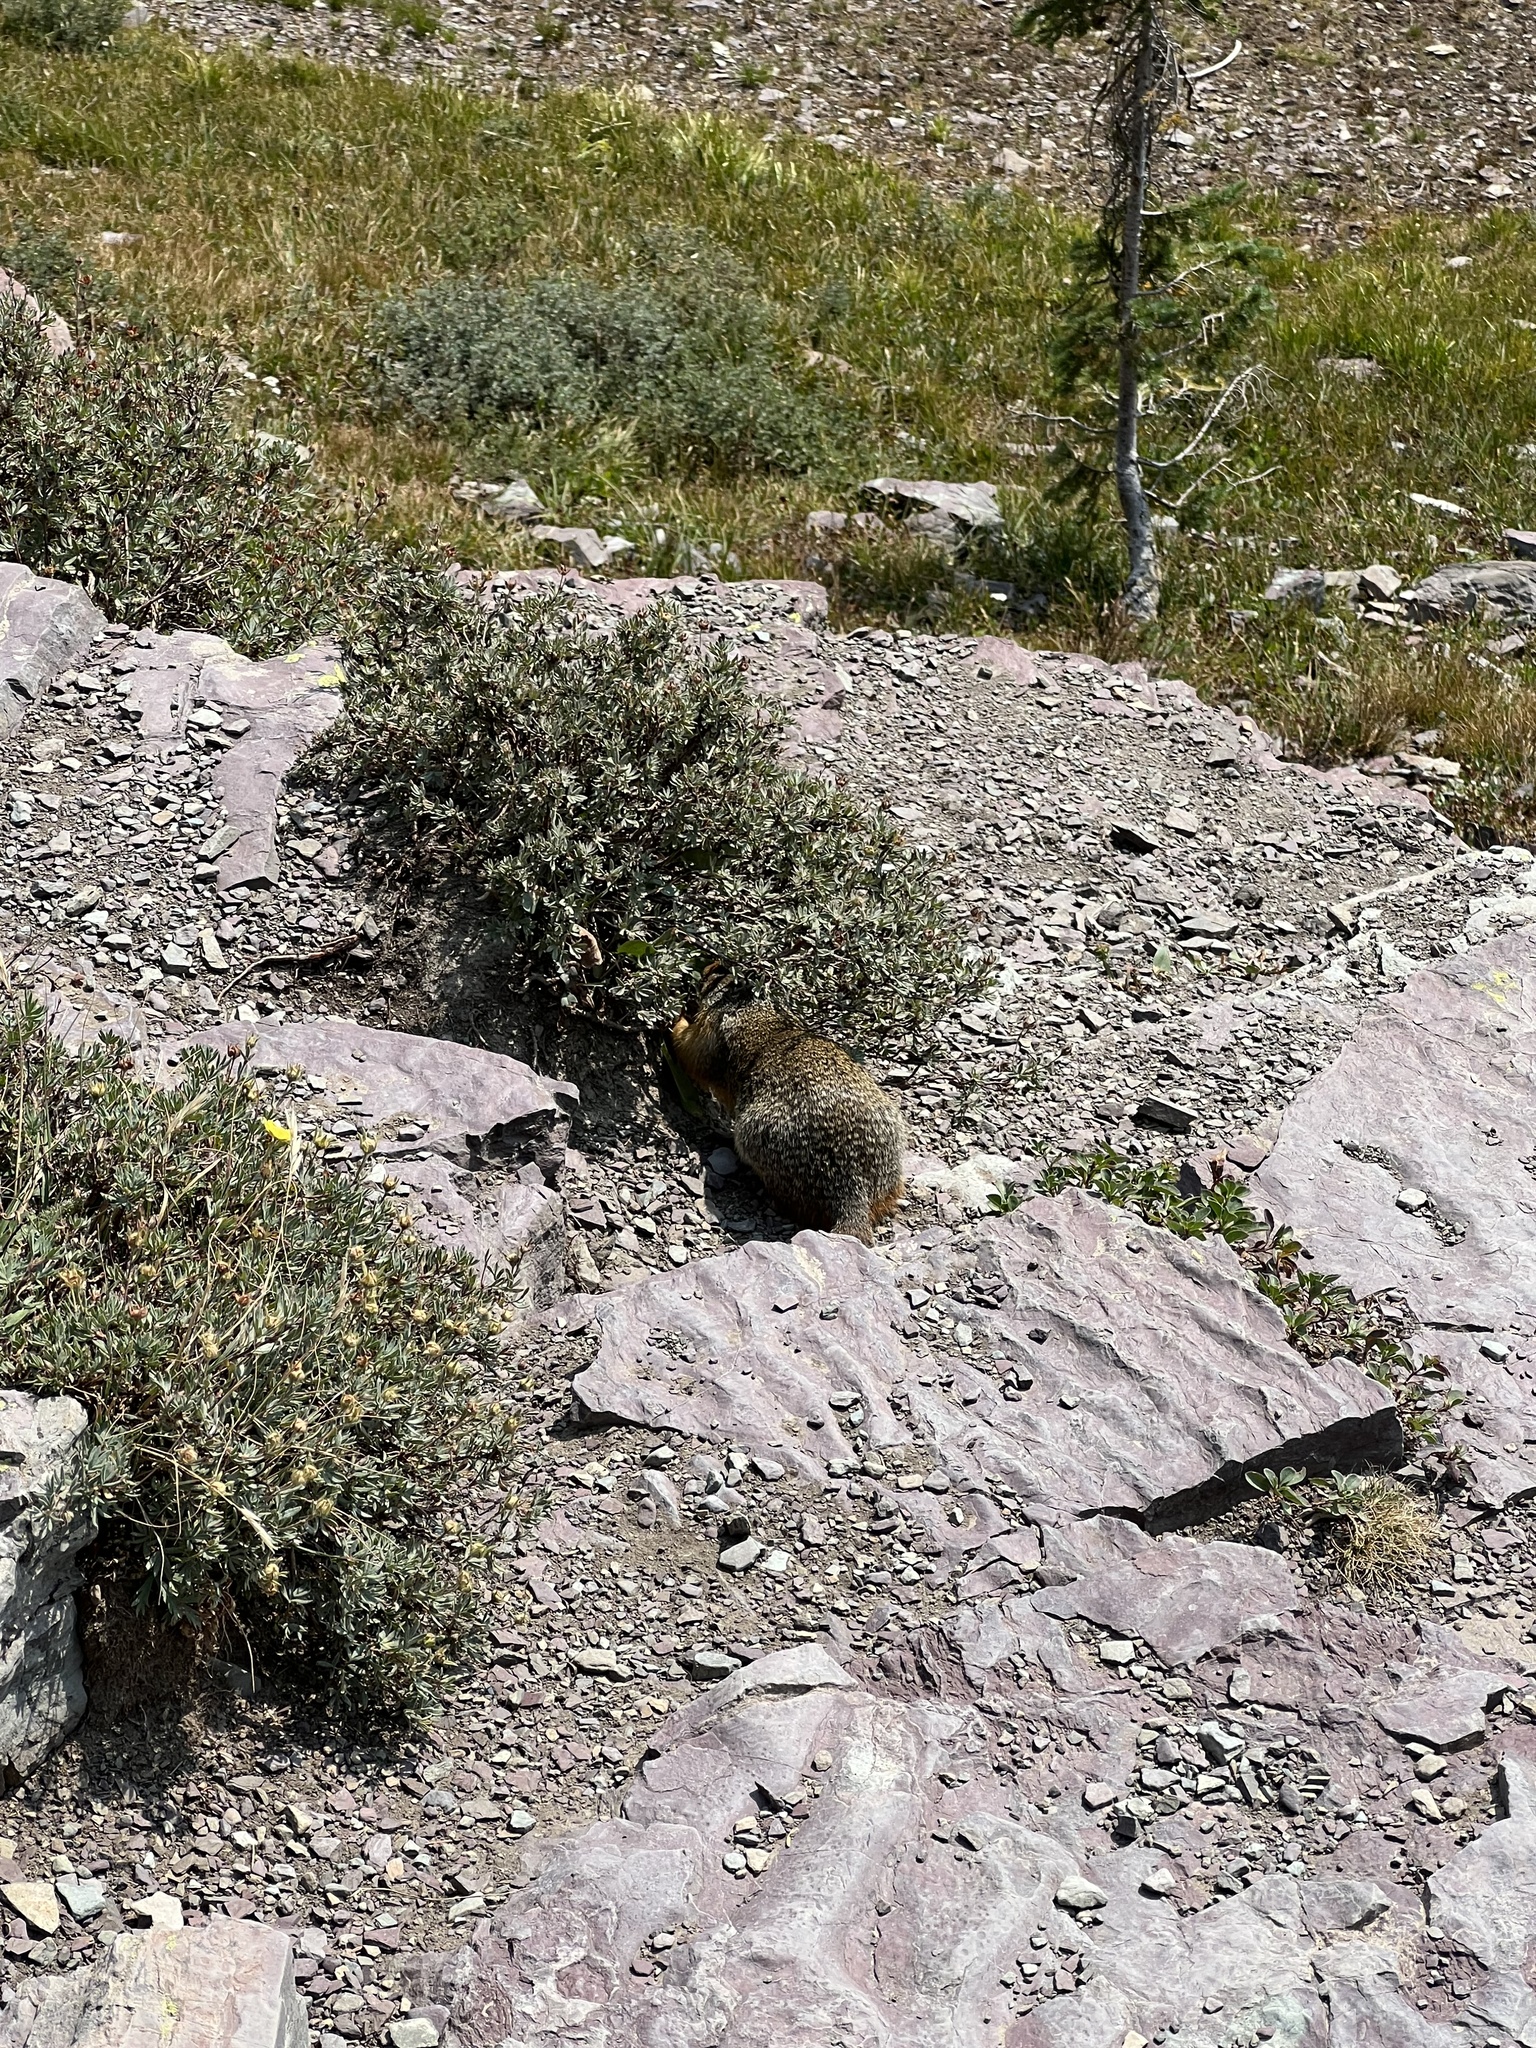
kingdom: Animalia
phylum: Chordata
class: Mammalia
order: Rodentia
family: Sciuridae
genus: Urocitellus
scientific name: Urocitellus columbianus
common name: Columbian ground squirrel
